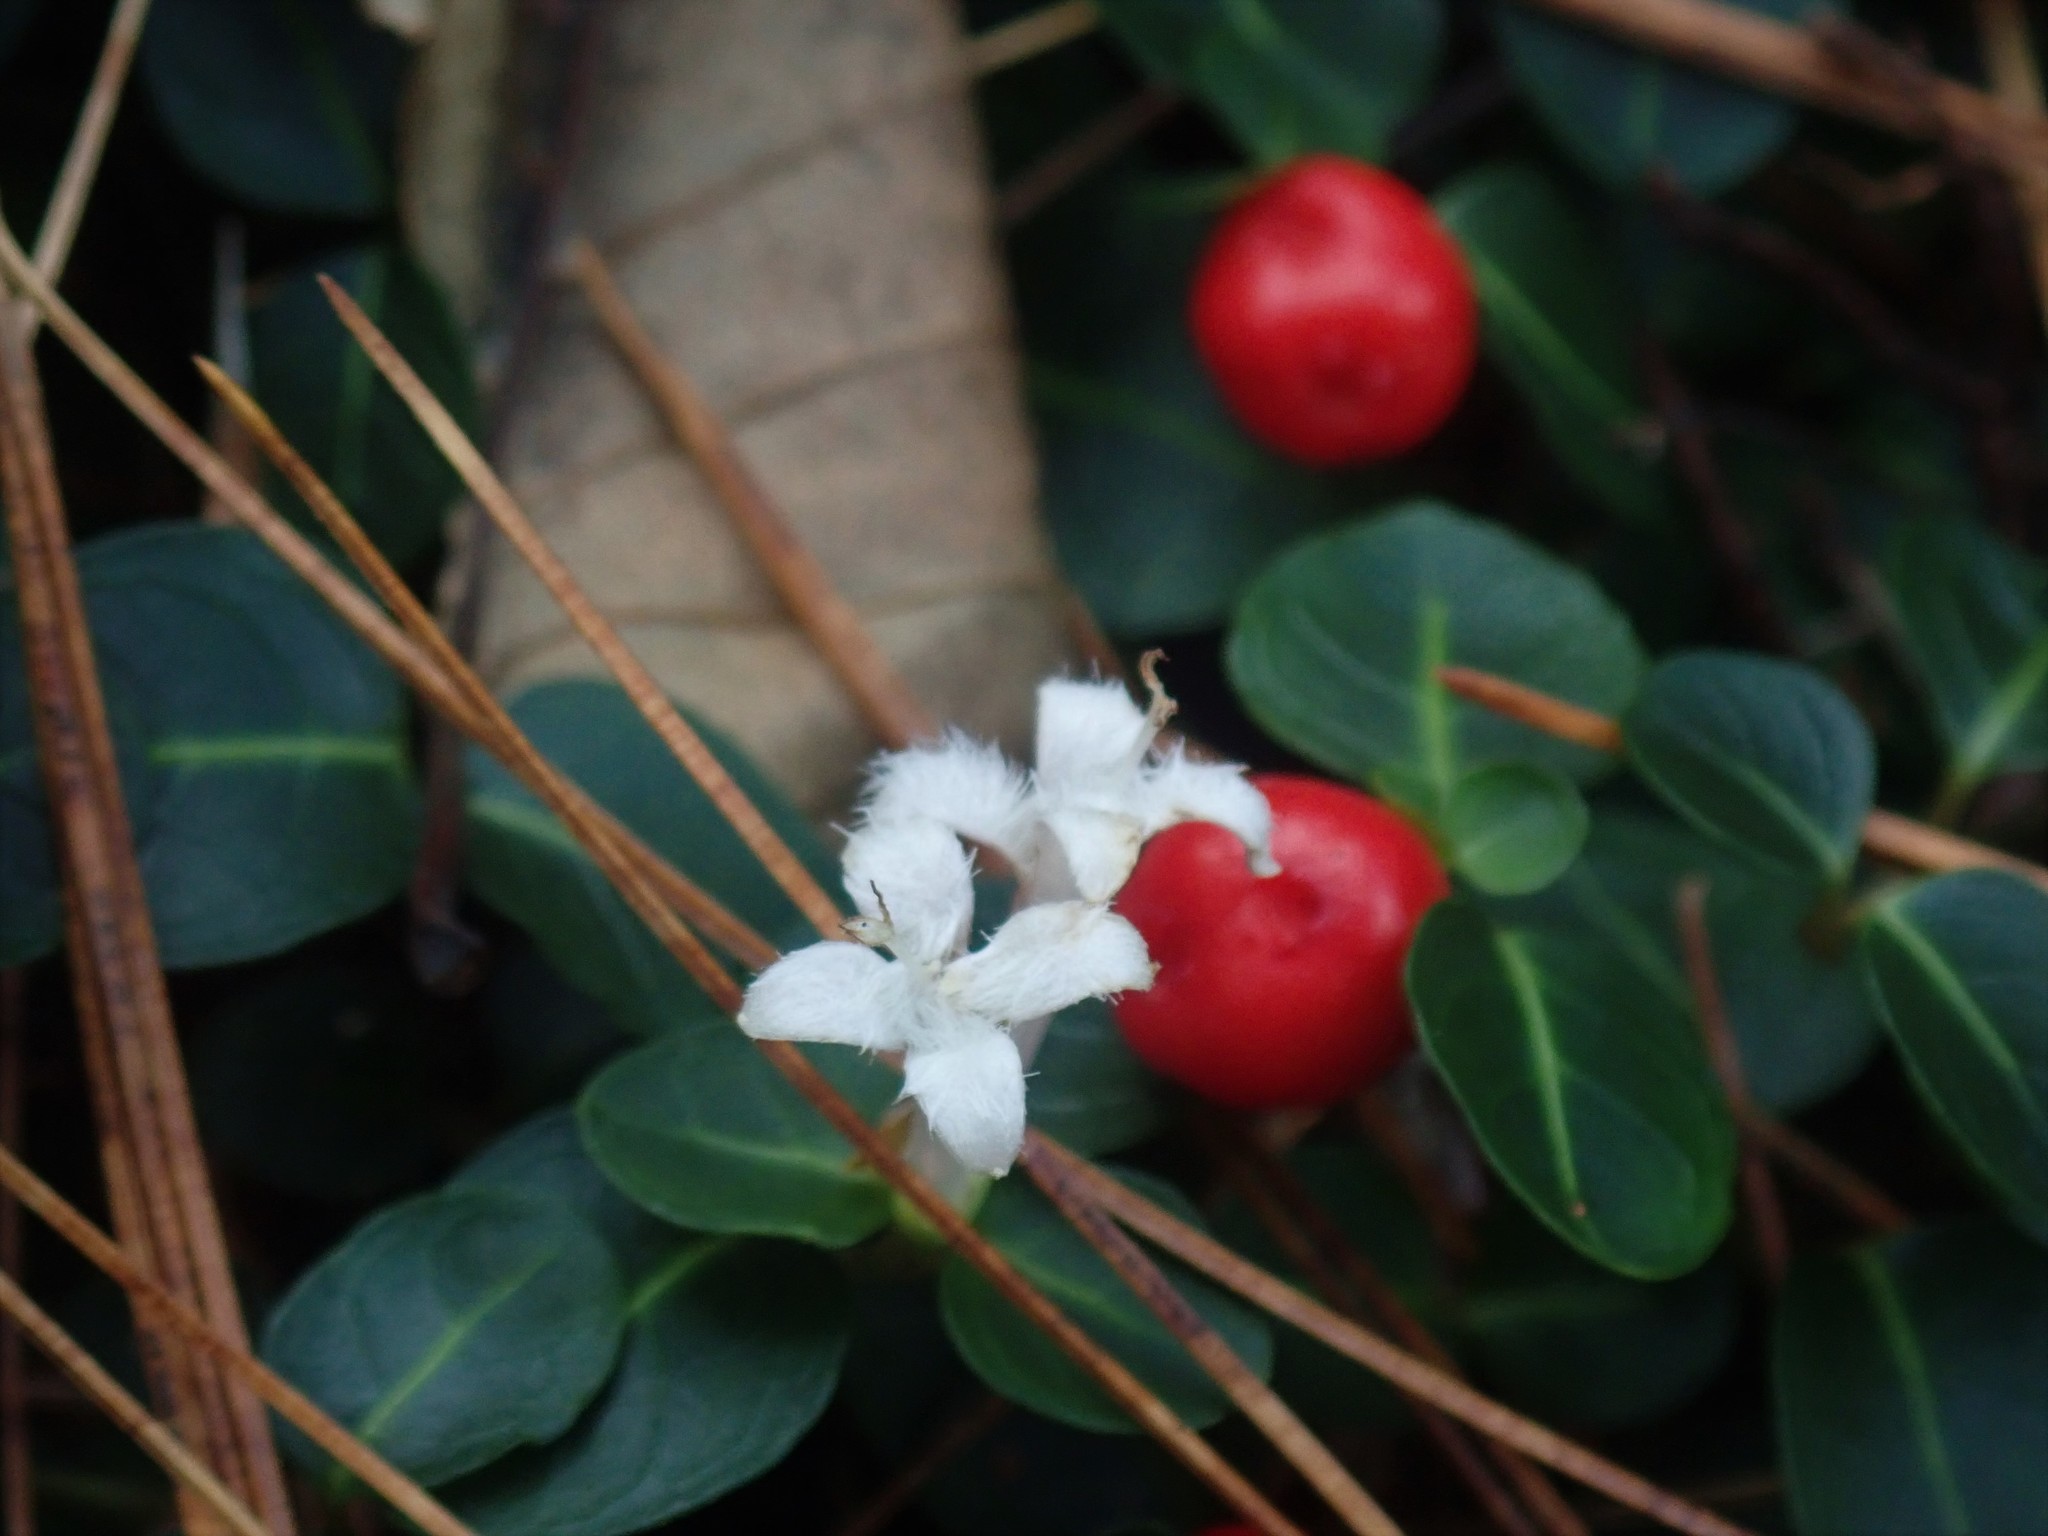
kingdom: Plantae
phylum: Tracheophyta
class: Magnoliopsida
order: Gentianales
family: Rubiaceae
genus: Mitchella
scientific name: Mitchella repens
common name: Partridge-berry
